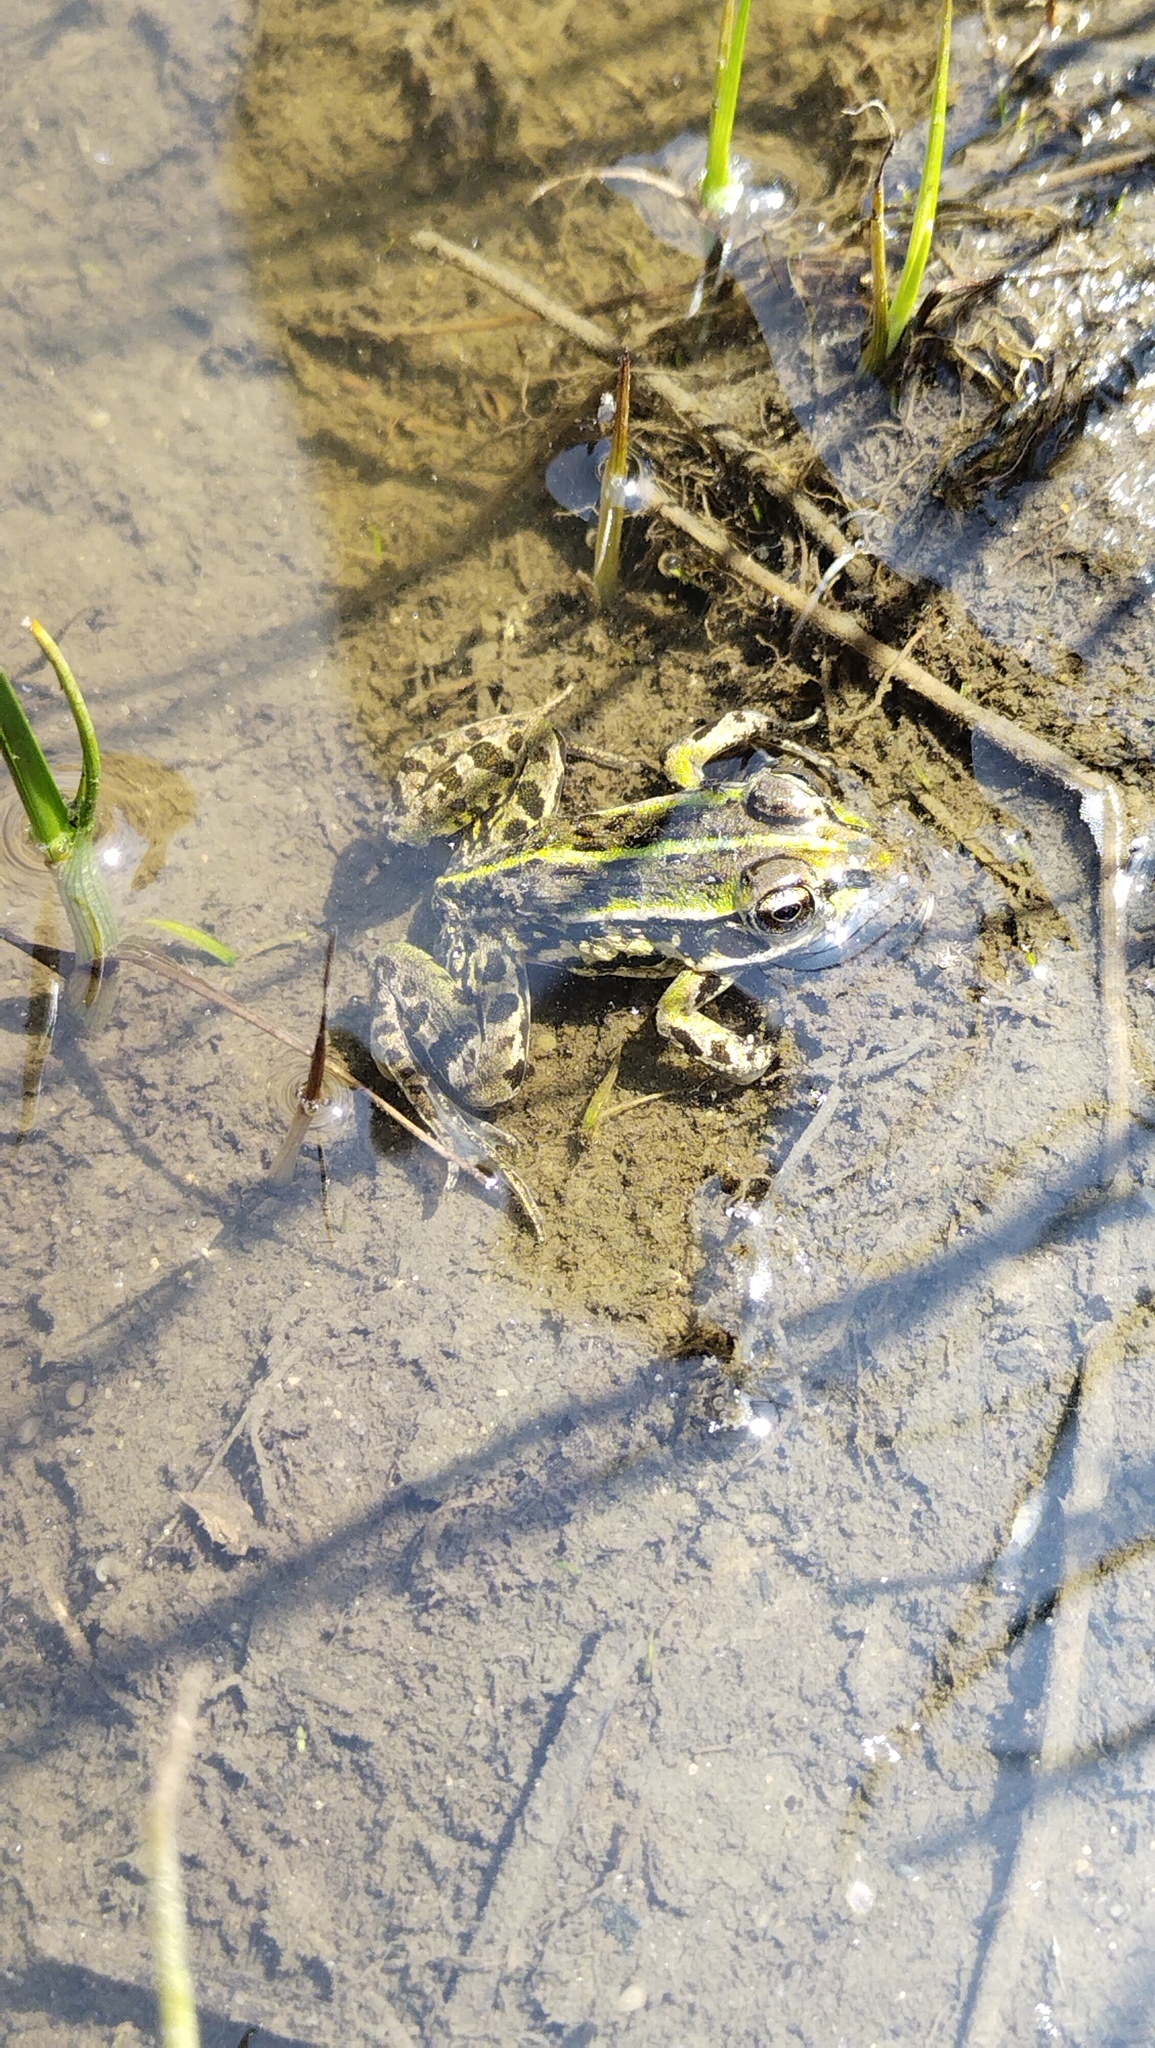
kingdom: Animalia
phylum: Chordata
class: Amphibia
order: Anura
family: Ranidae
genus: Pelophylax
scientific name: Pelophylax nigromaculatus
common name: Black-spotted pond frog
